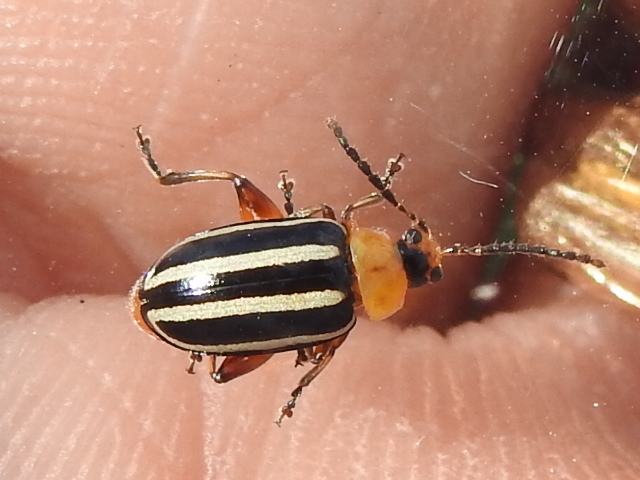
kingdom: Animalia
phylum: Arthropoda
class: Insecta
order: Coleoptera
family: Chrysomelidae
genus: Disonycha
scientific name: Disonycha glabrata
